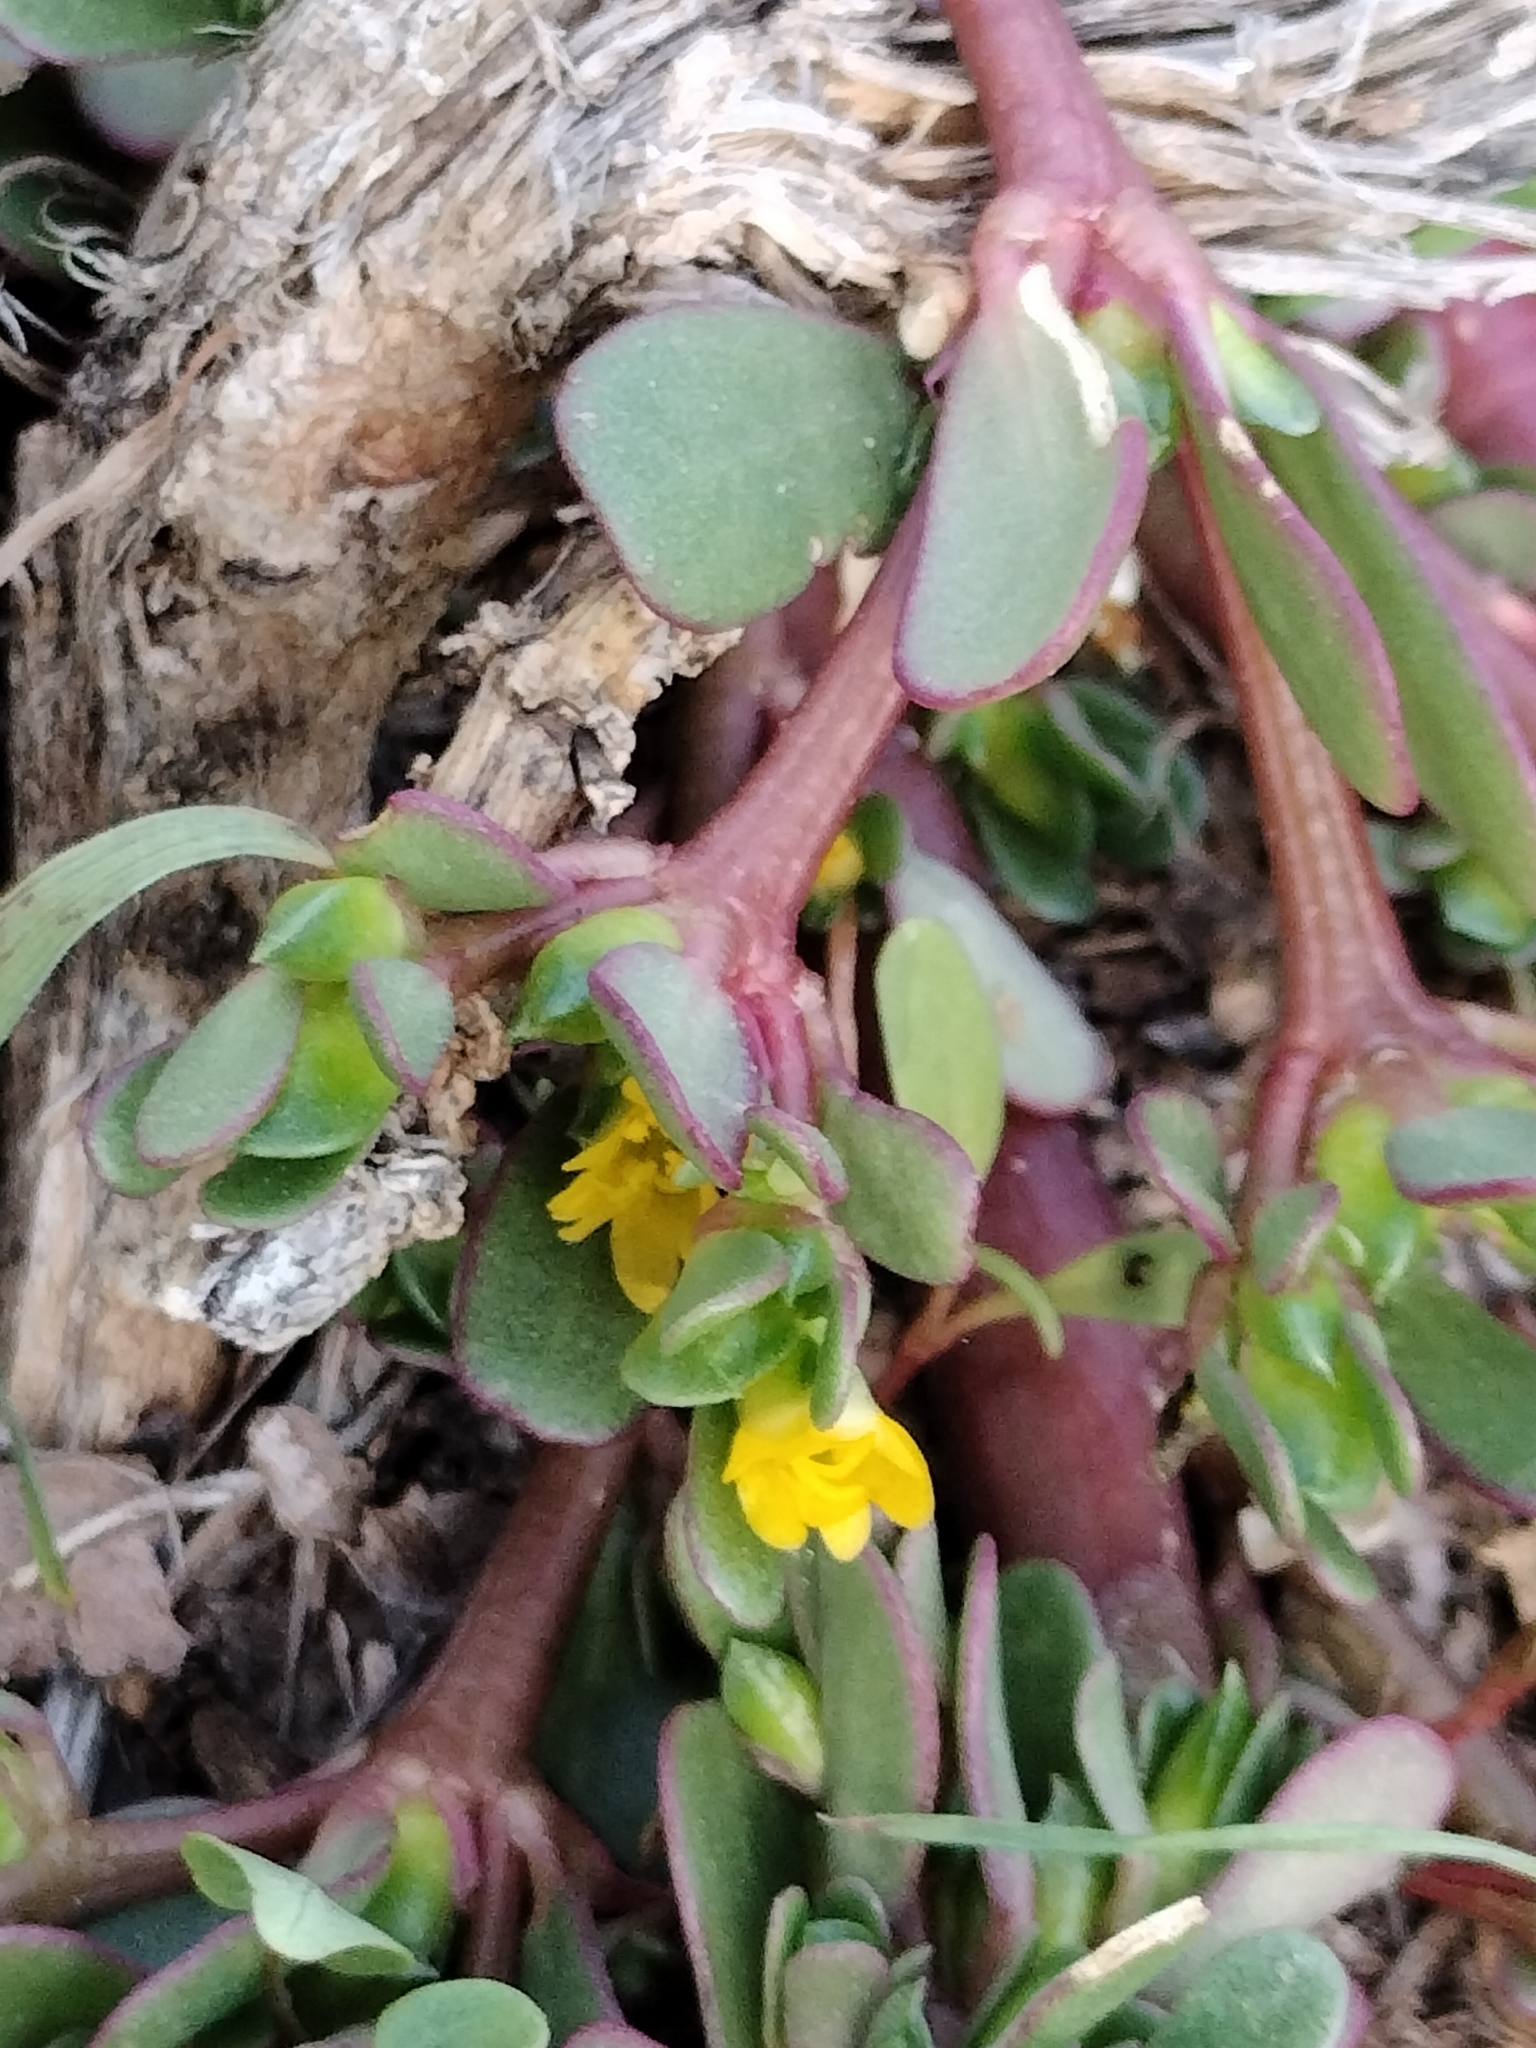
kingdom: Plantae
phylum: Tracheophyta
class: Magnoliopsida
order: Caryophyllales
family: Portulacaceae
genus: Portulaca
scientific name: Portulaca oleracea
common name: Common purslane
